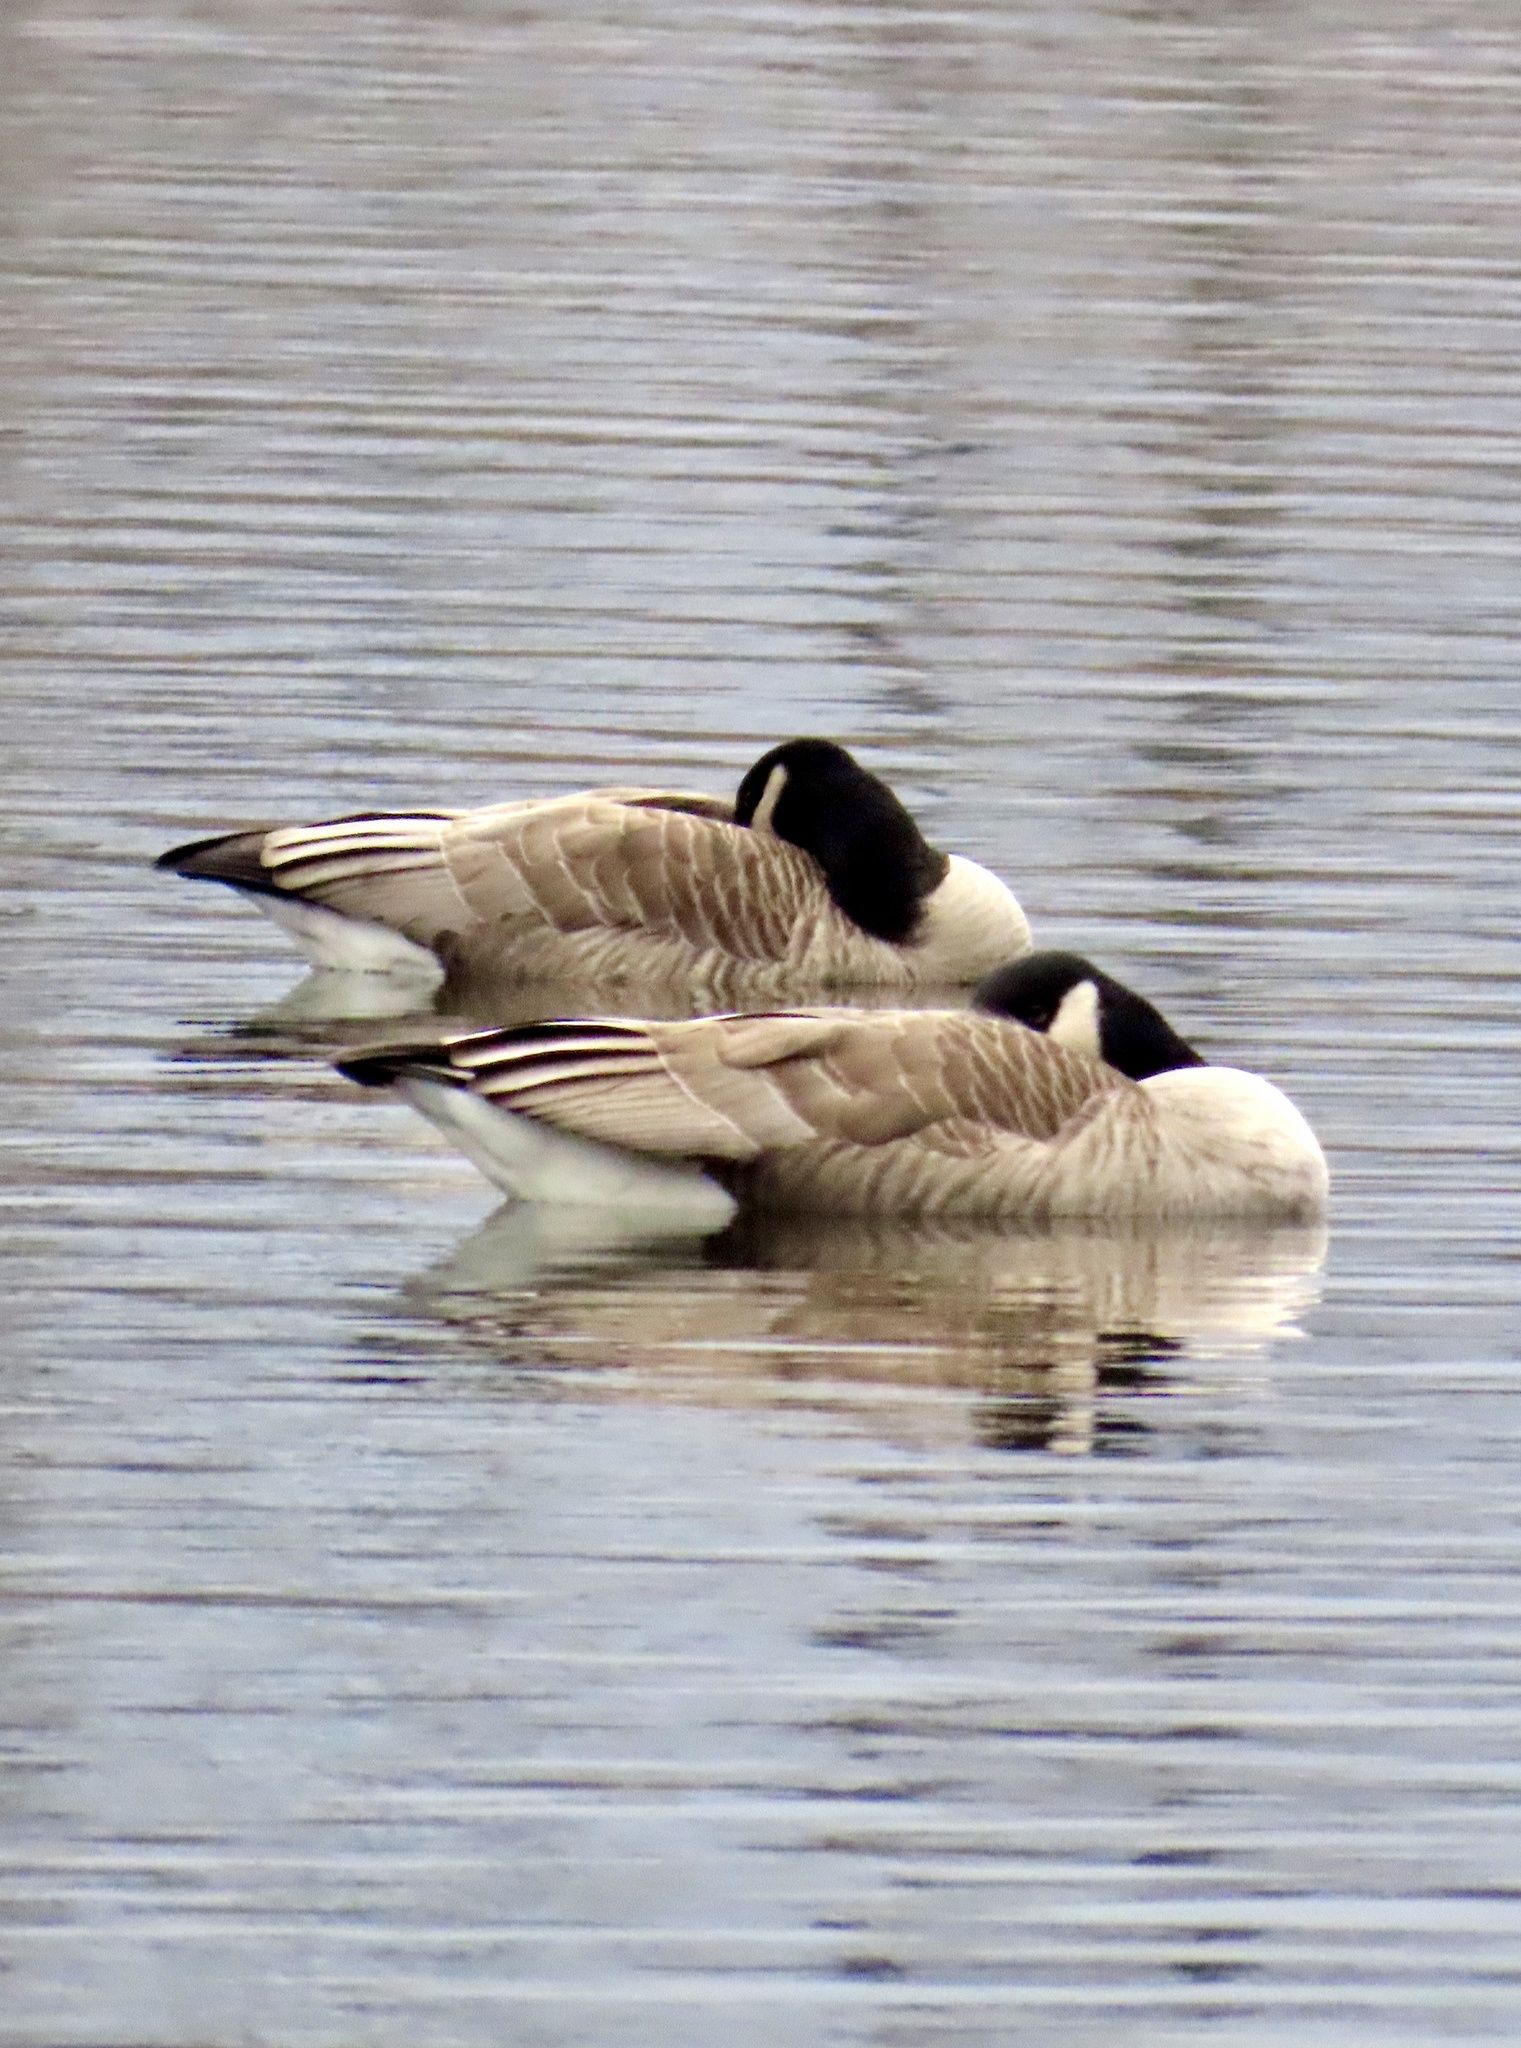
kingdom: Animalia
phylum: Chordata
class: Aves
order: Anseriformes
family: Anatidae
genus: Branta
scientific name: Branta canadensis
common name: Canada goose
